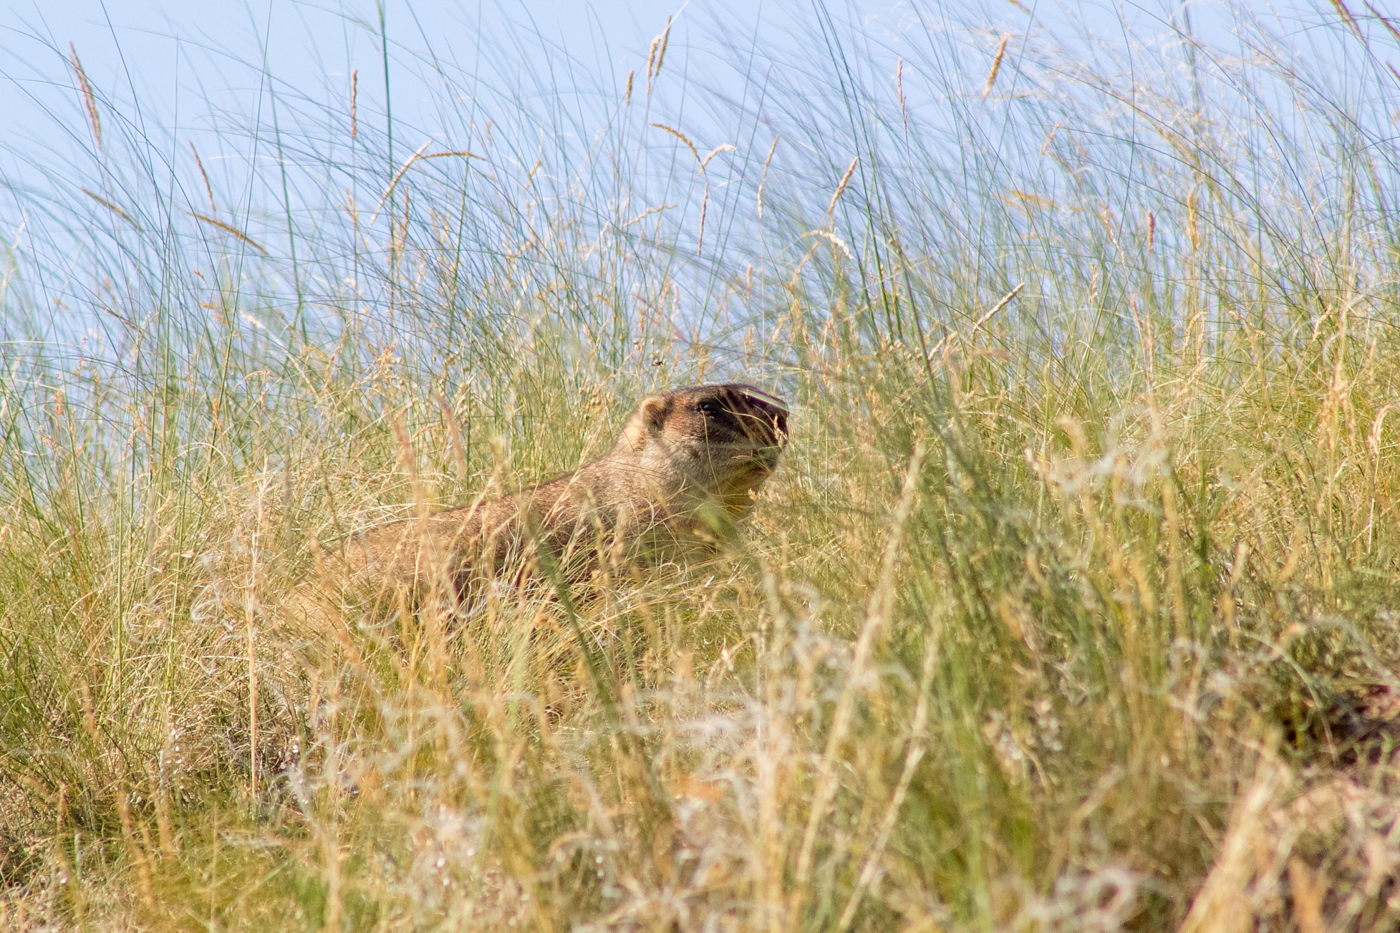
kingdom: Animalia
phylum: Chordata
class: Mammalia
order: Rodentia
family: Sciuridae
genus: Marmota
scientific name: Marmota bobak
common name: Bobak marmot
